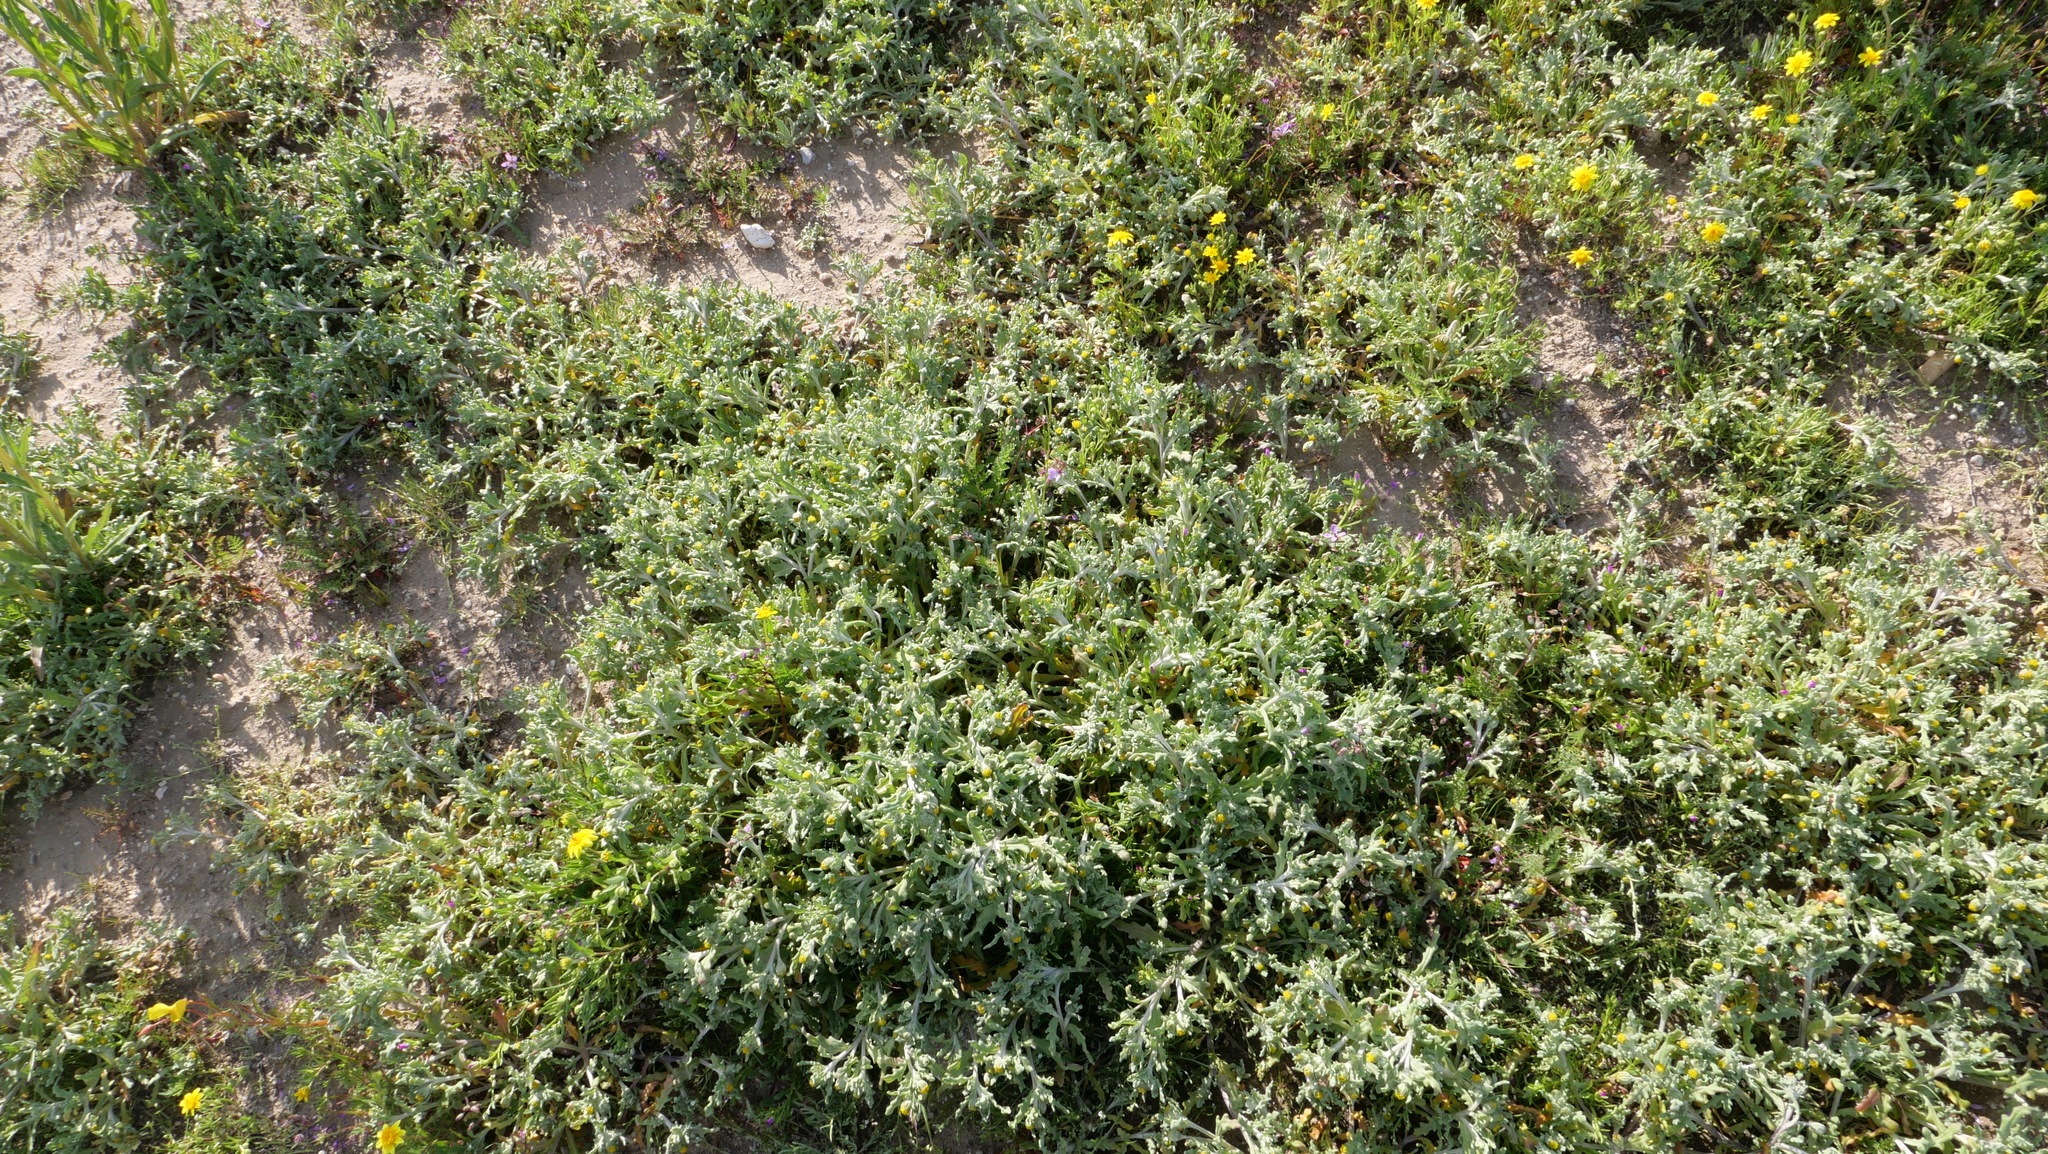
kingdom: Plantae
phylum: Tracheophyta
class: Magnoliopsida
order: Asterales
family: Asteraceae
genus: Monolopia
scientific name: Monolopia congdonii
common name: San joaquin woolly-threads
